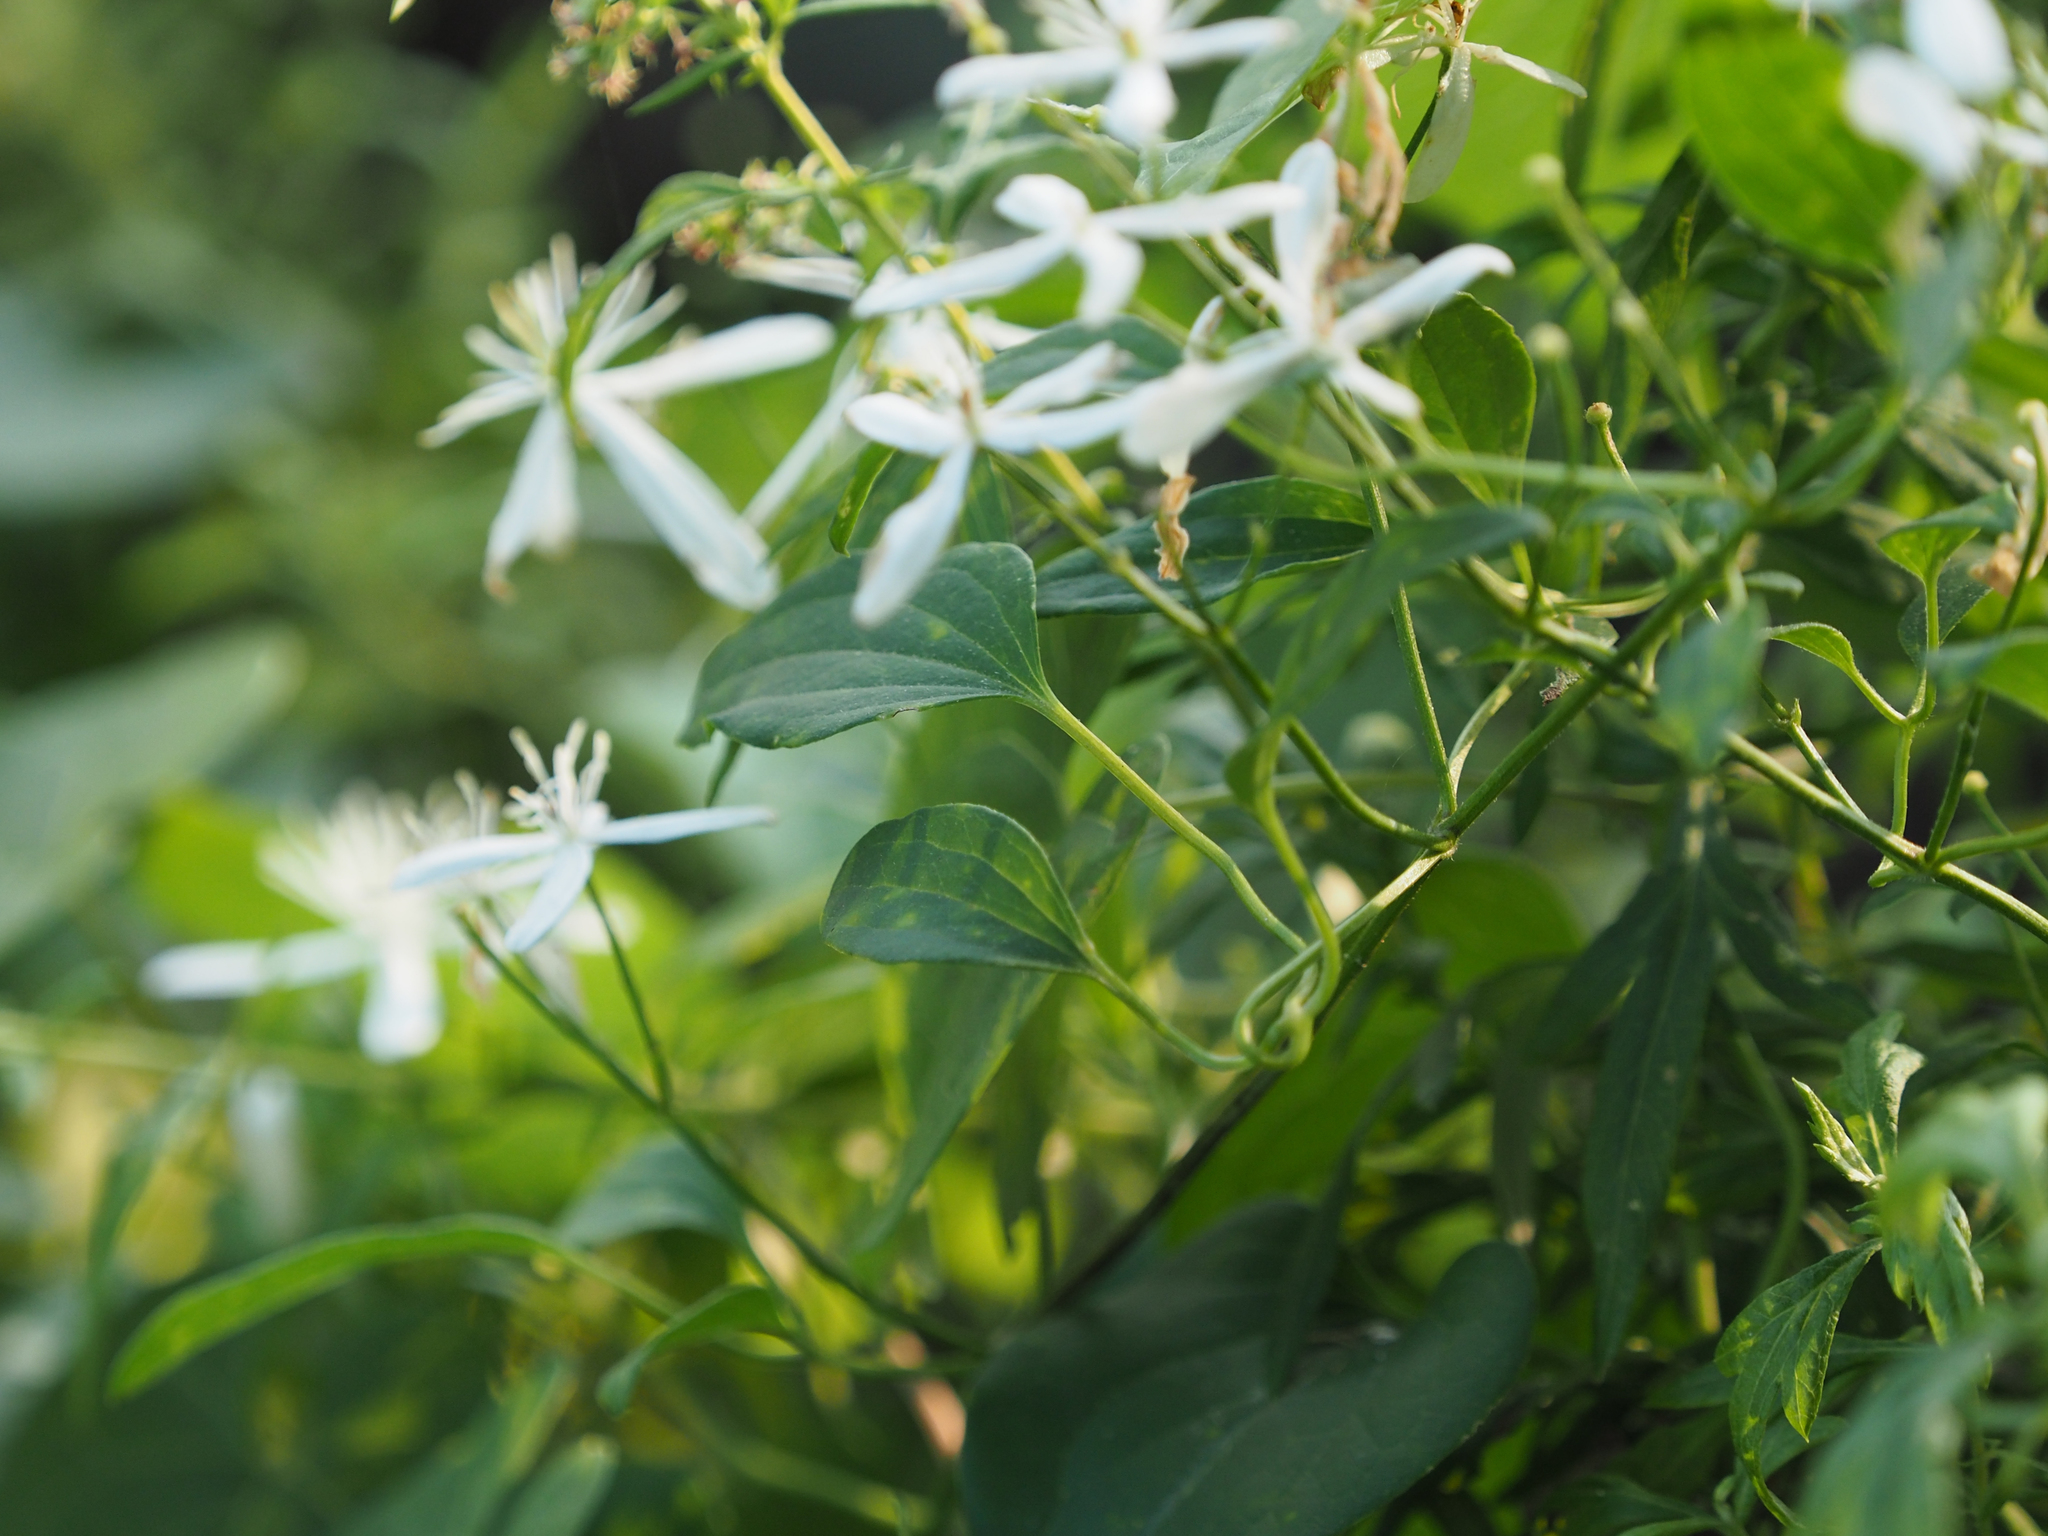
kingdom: Plantae
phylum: Tracheophyta
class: Magnoliopsida
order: Ranunculales
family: Ranunculaceae
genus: Clematis
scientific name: Clematis terniflora
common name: Sweet autumn clematis
